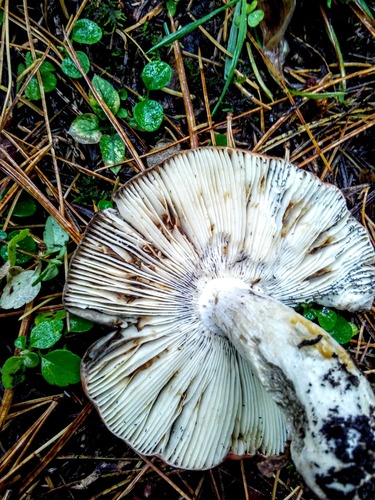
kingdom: Fungi
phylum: Basidiomycota
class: Agaricomycetes
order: Russulales
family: Russulaceae
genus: Russula
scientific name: Russula
